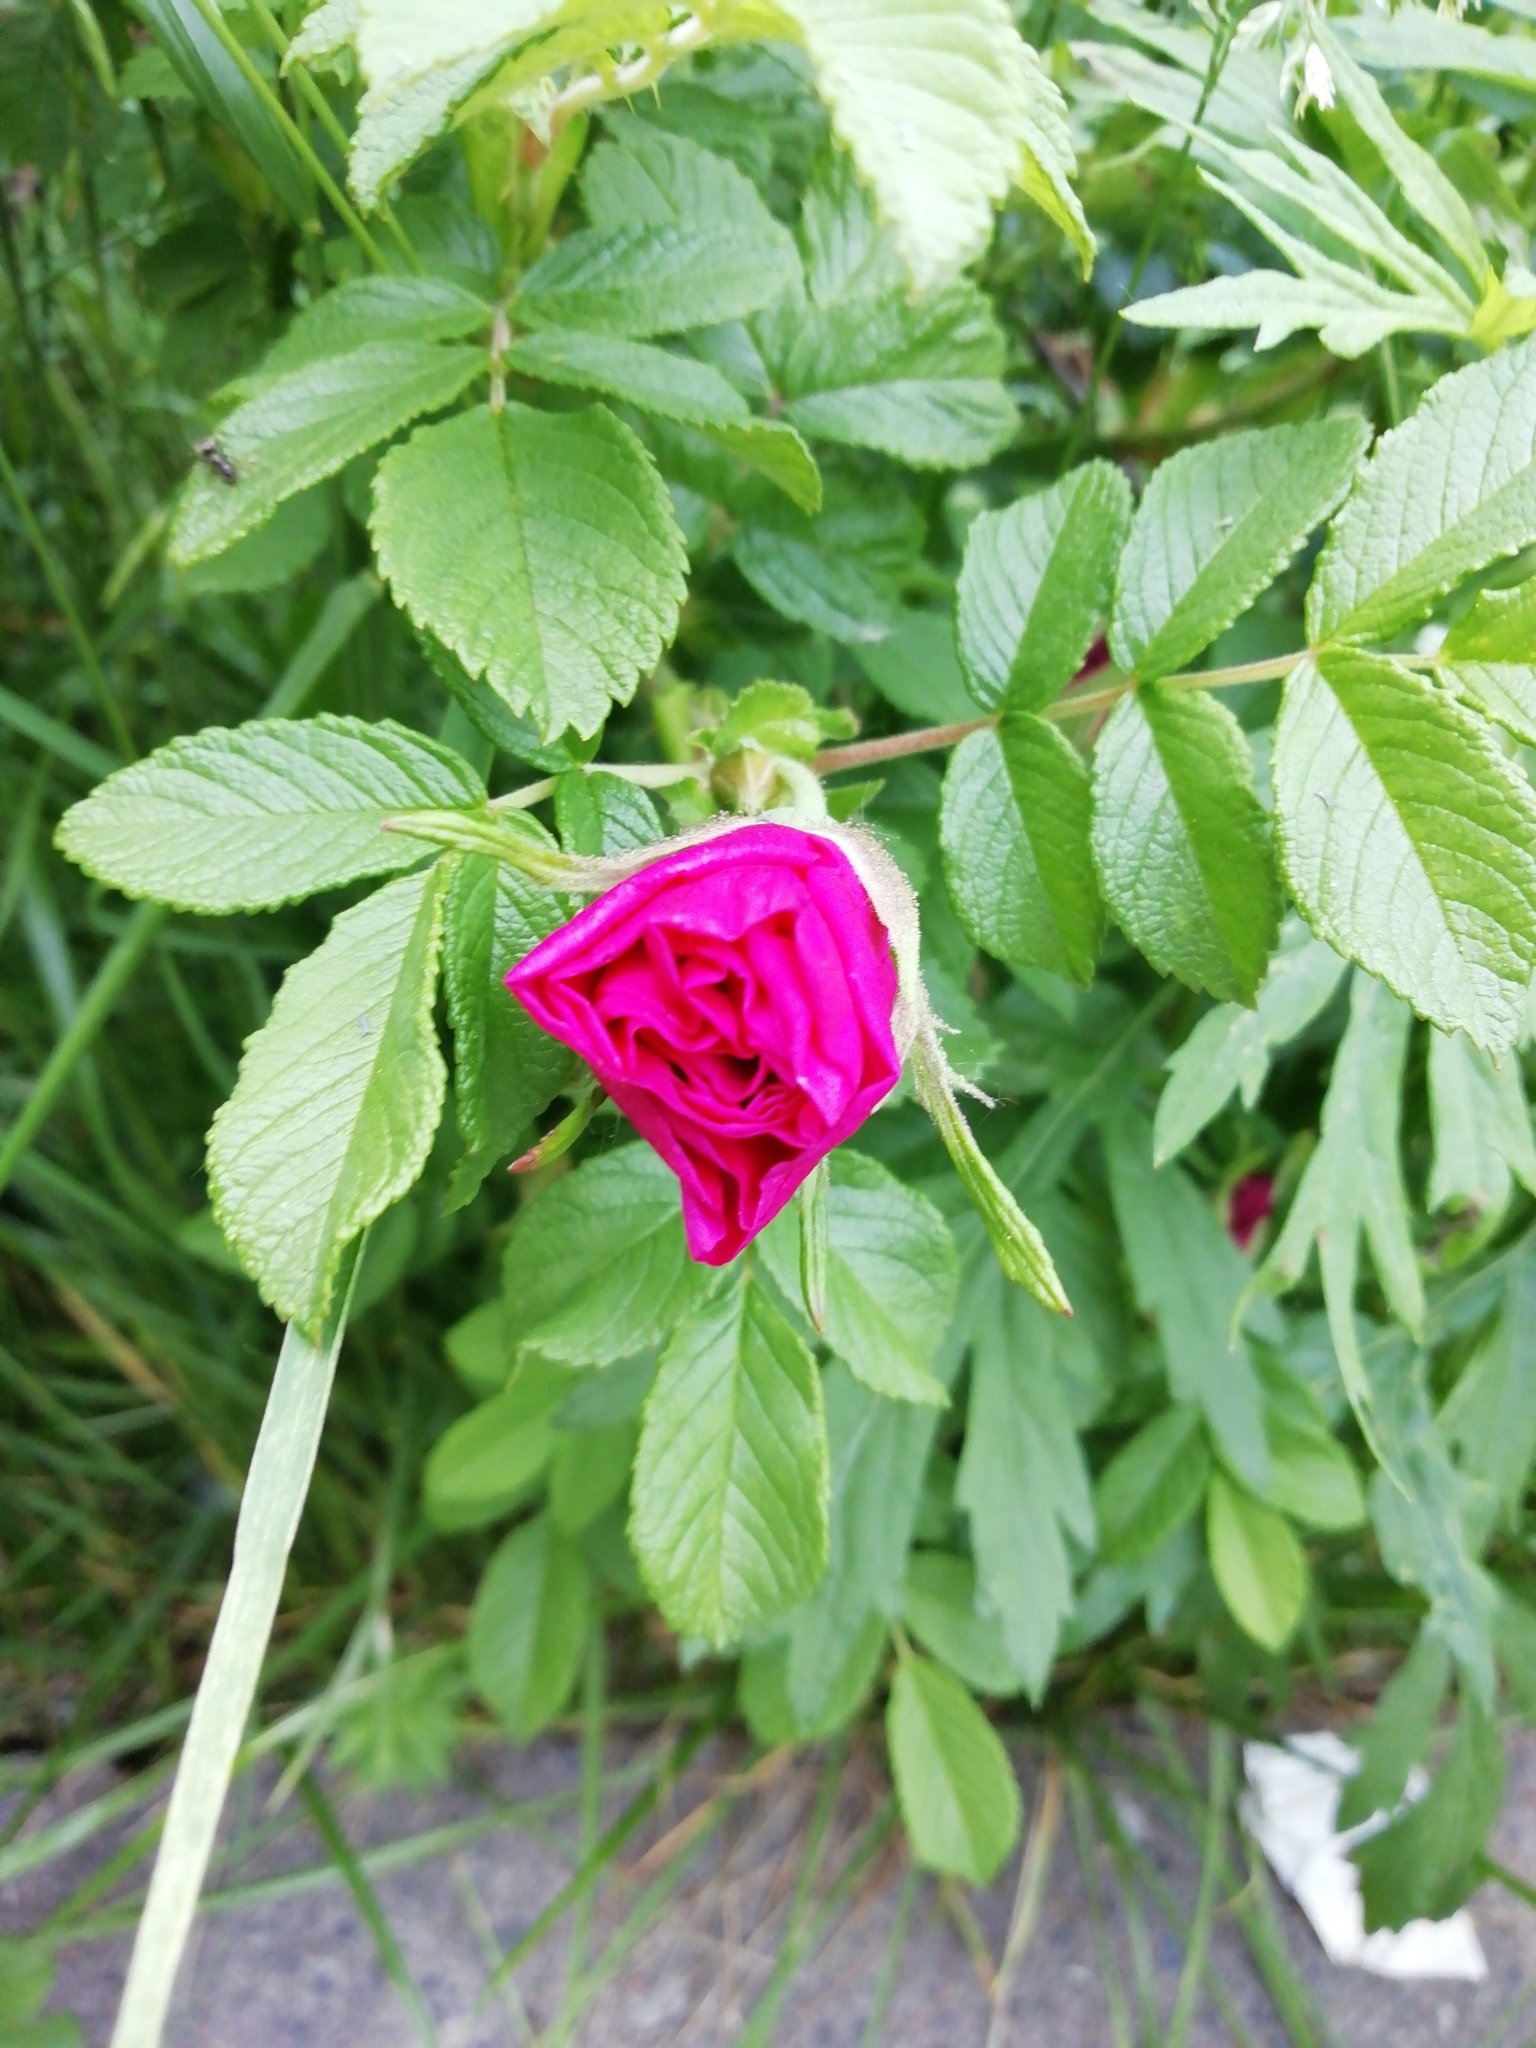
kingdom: Plantae
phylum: Tracheophyta
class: Magnoliopsida
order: Rosales
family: Rosaceae
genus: Rosa
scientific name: Rosa rugosa
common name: Japanese rose
